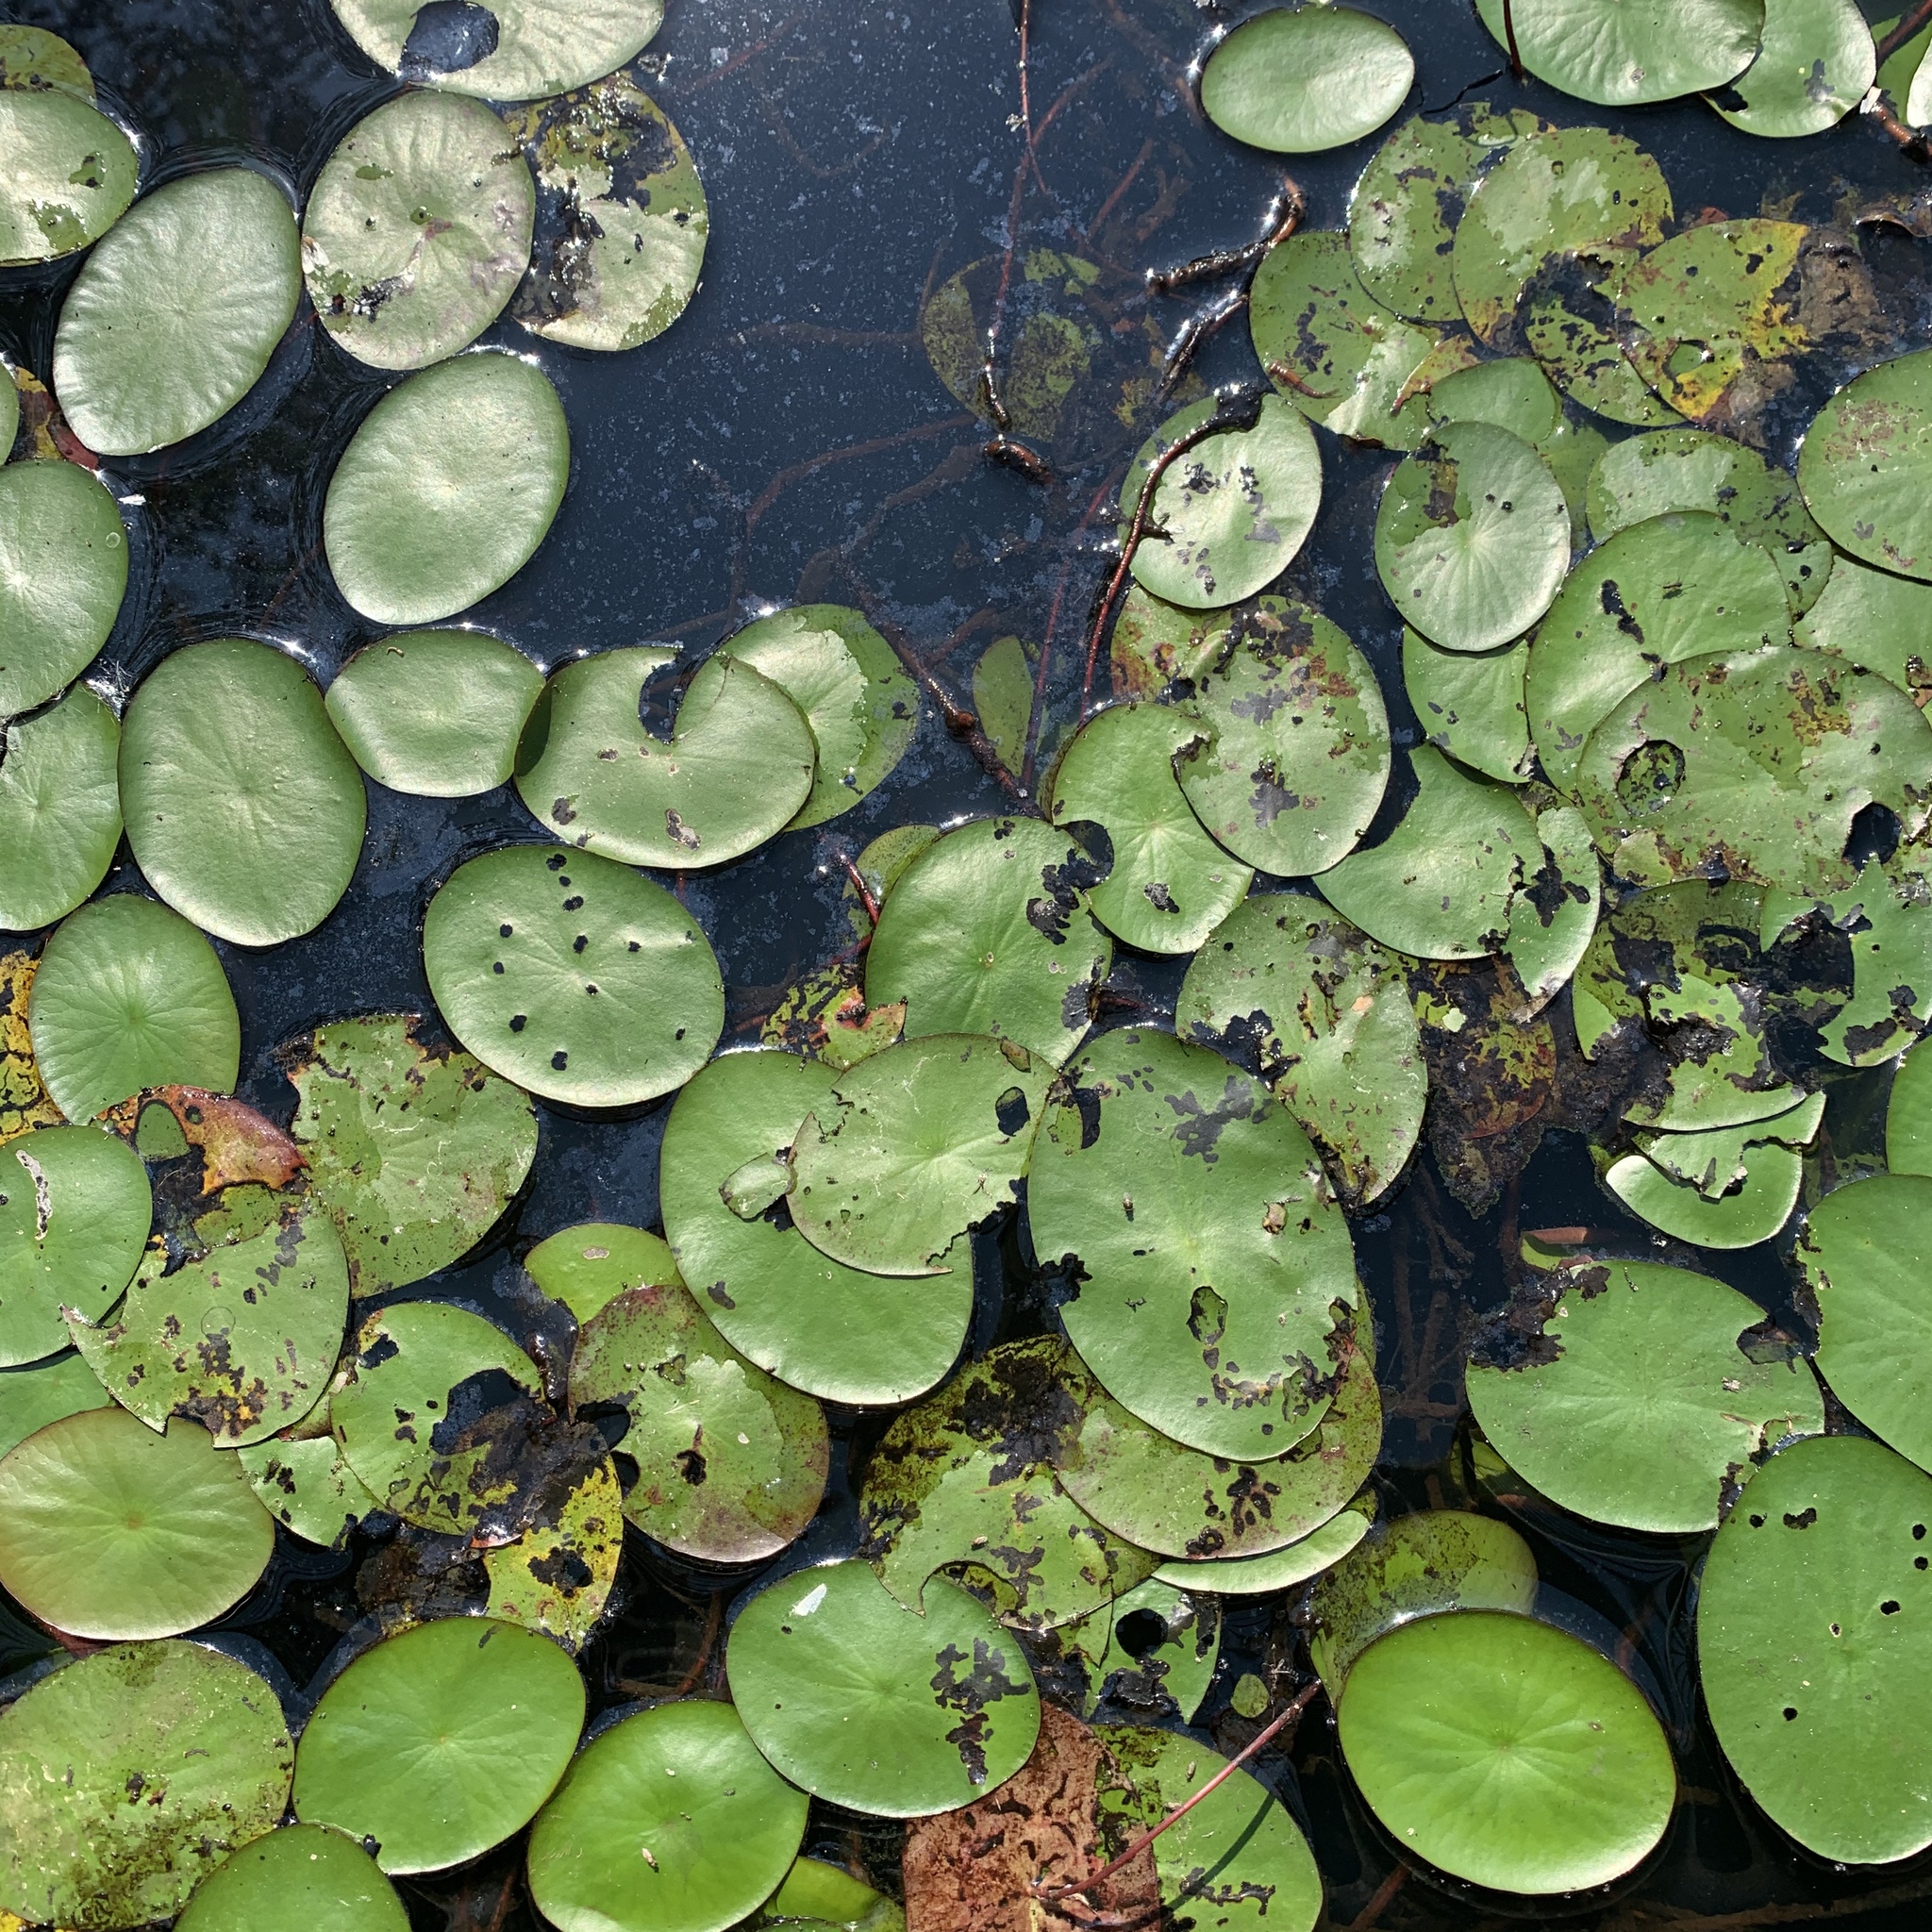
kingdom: Plantae
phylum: Tracheophyta
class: Magnoliopsida
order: Nymphaeales
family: Cabombaceae
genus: Brasenia
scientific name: Brasenia schreberi
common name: Water-shield
